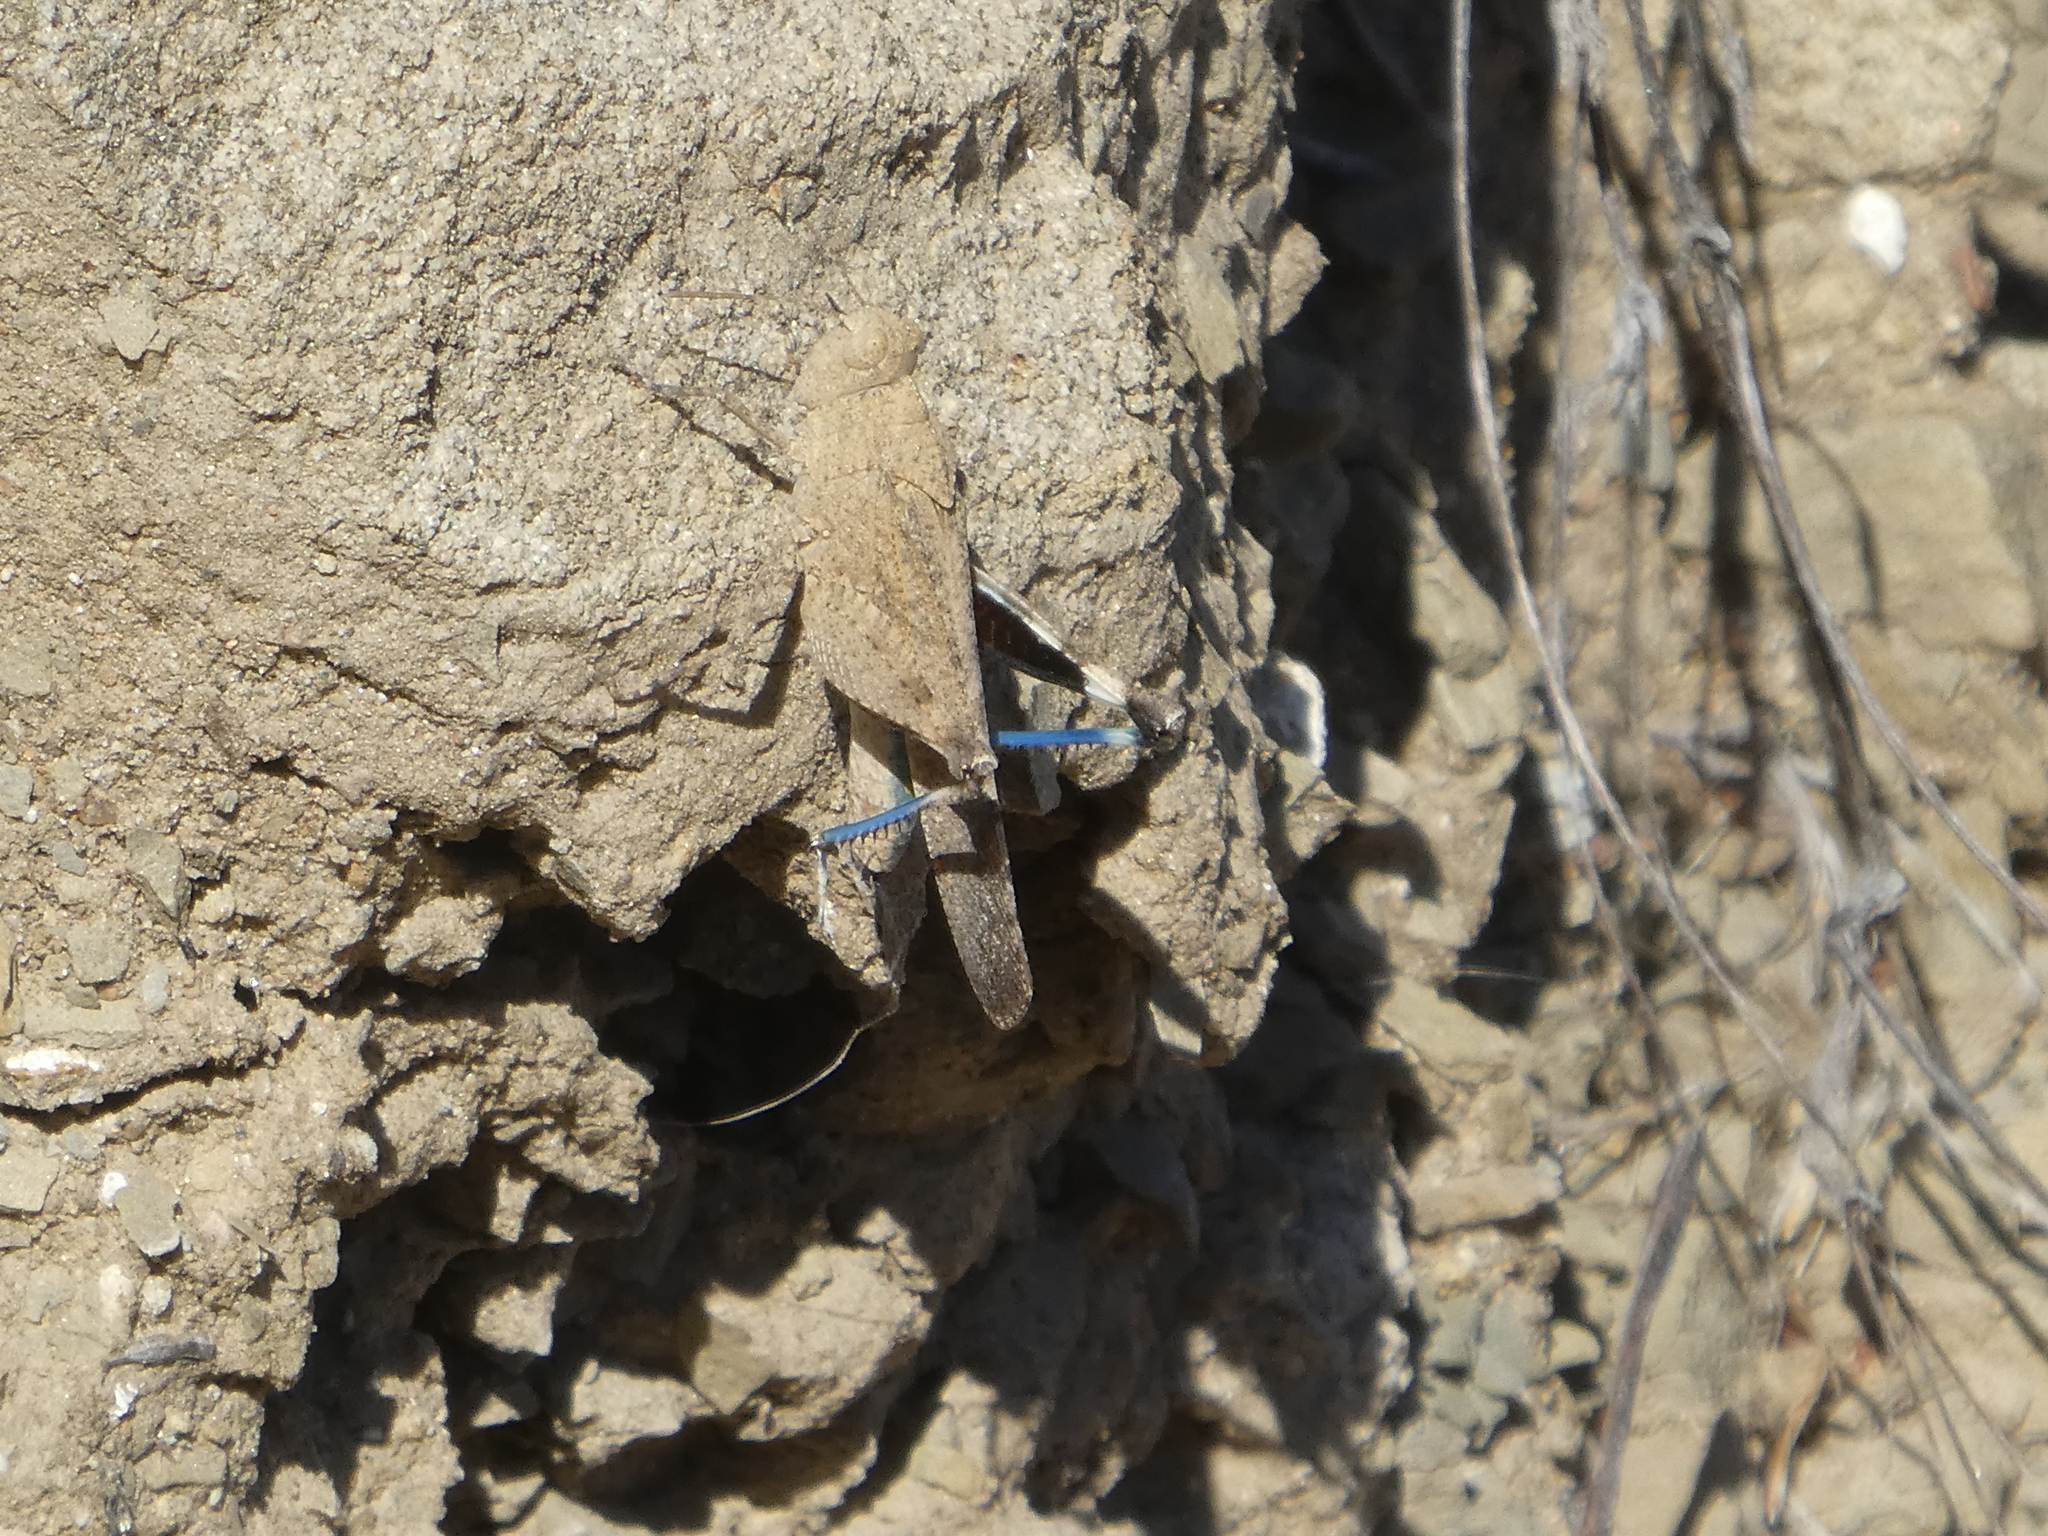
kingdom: Animalia
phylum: Arthropoda
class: Insecta
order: Orthoptera
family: Acrididae
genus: Lactista
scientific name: Lactista gibbosus
